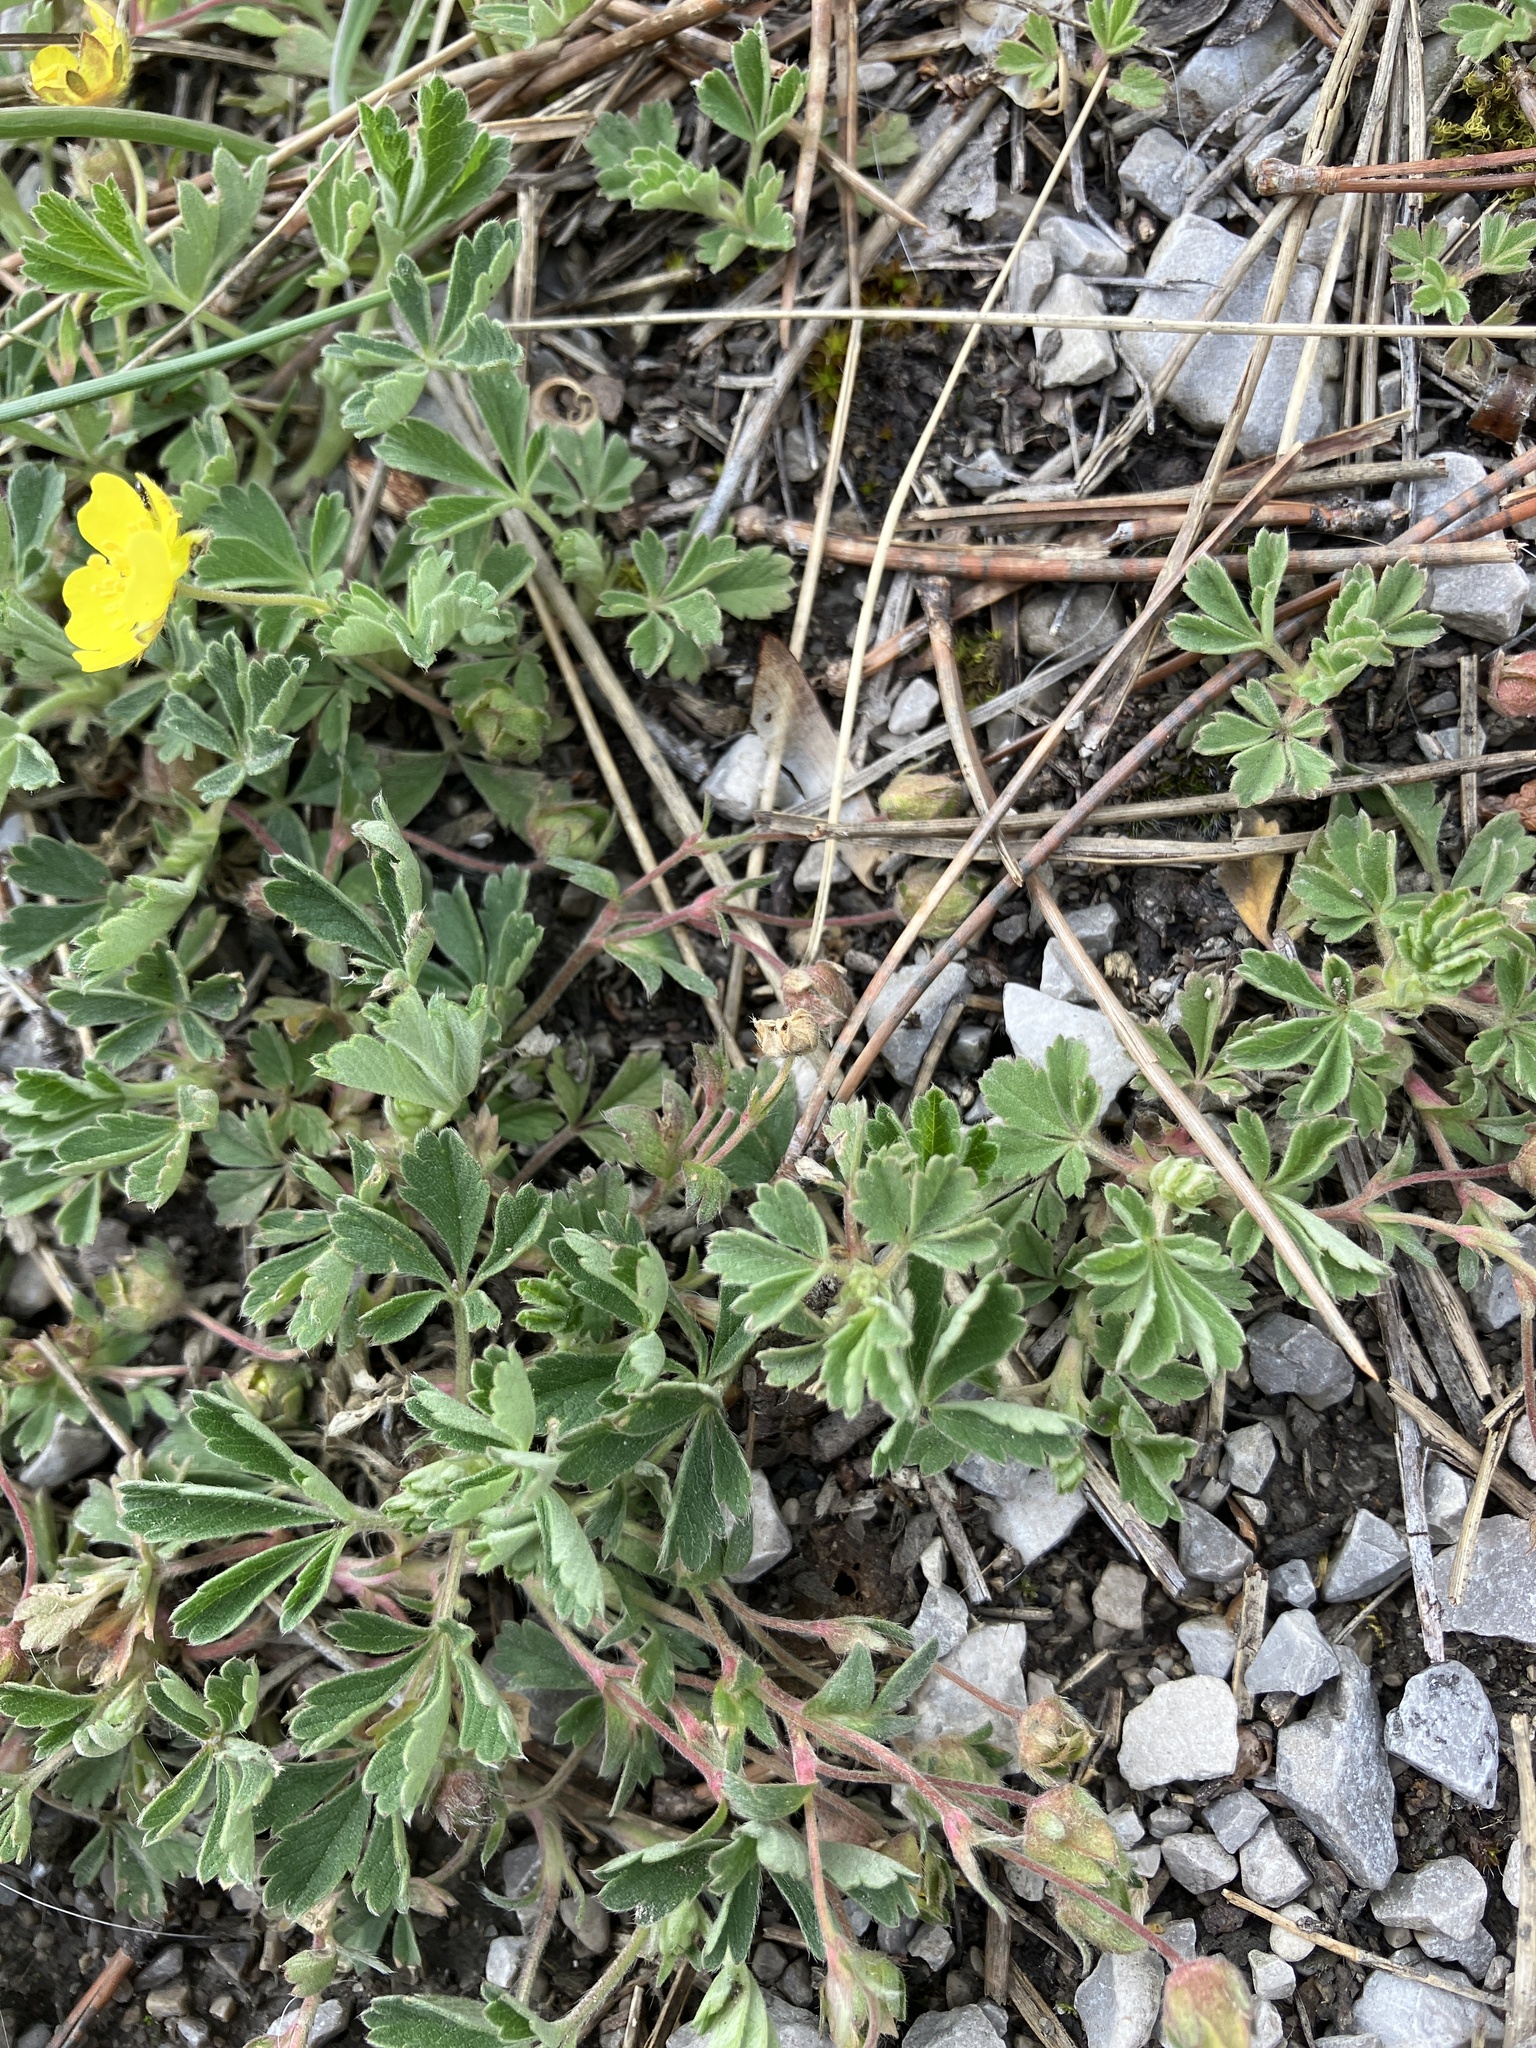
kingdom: Plantae
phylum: Tracheophyta
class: Magnoliopsida
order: Rosales
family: Rosaceae
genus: Potentilla
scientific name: Potentilla incana
